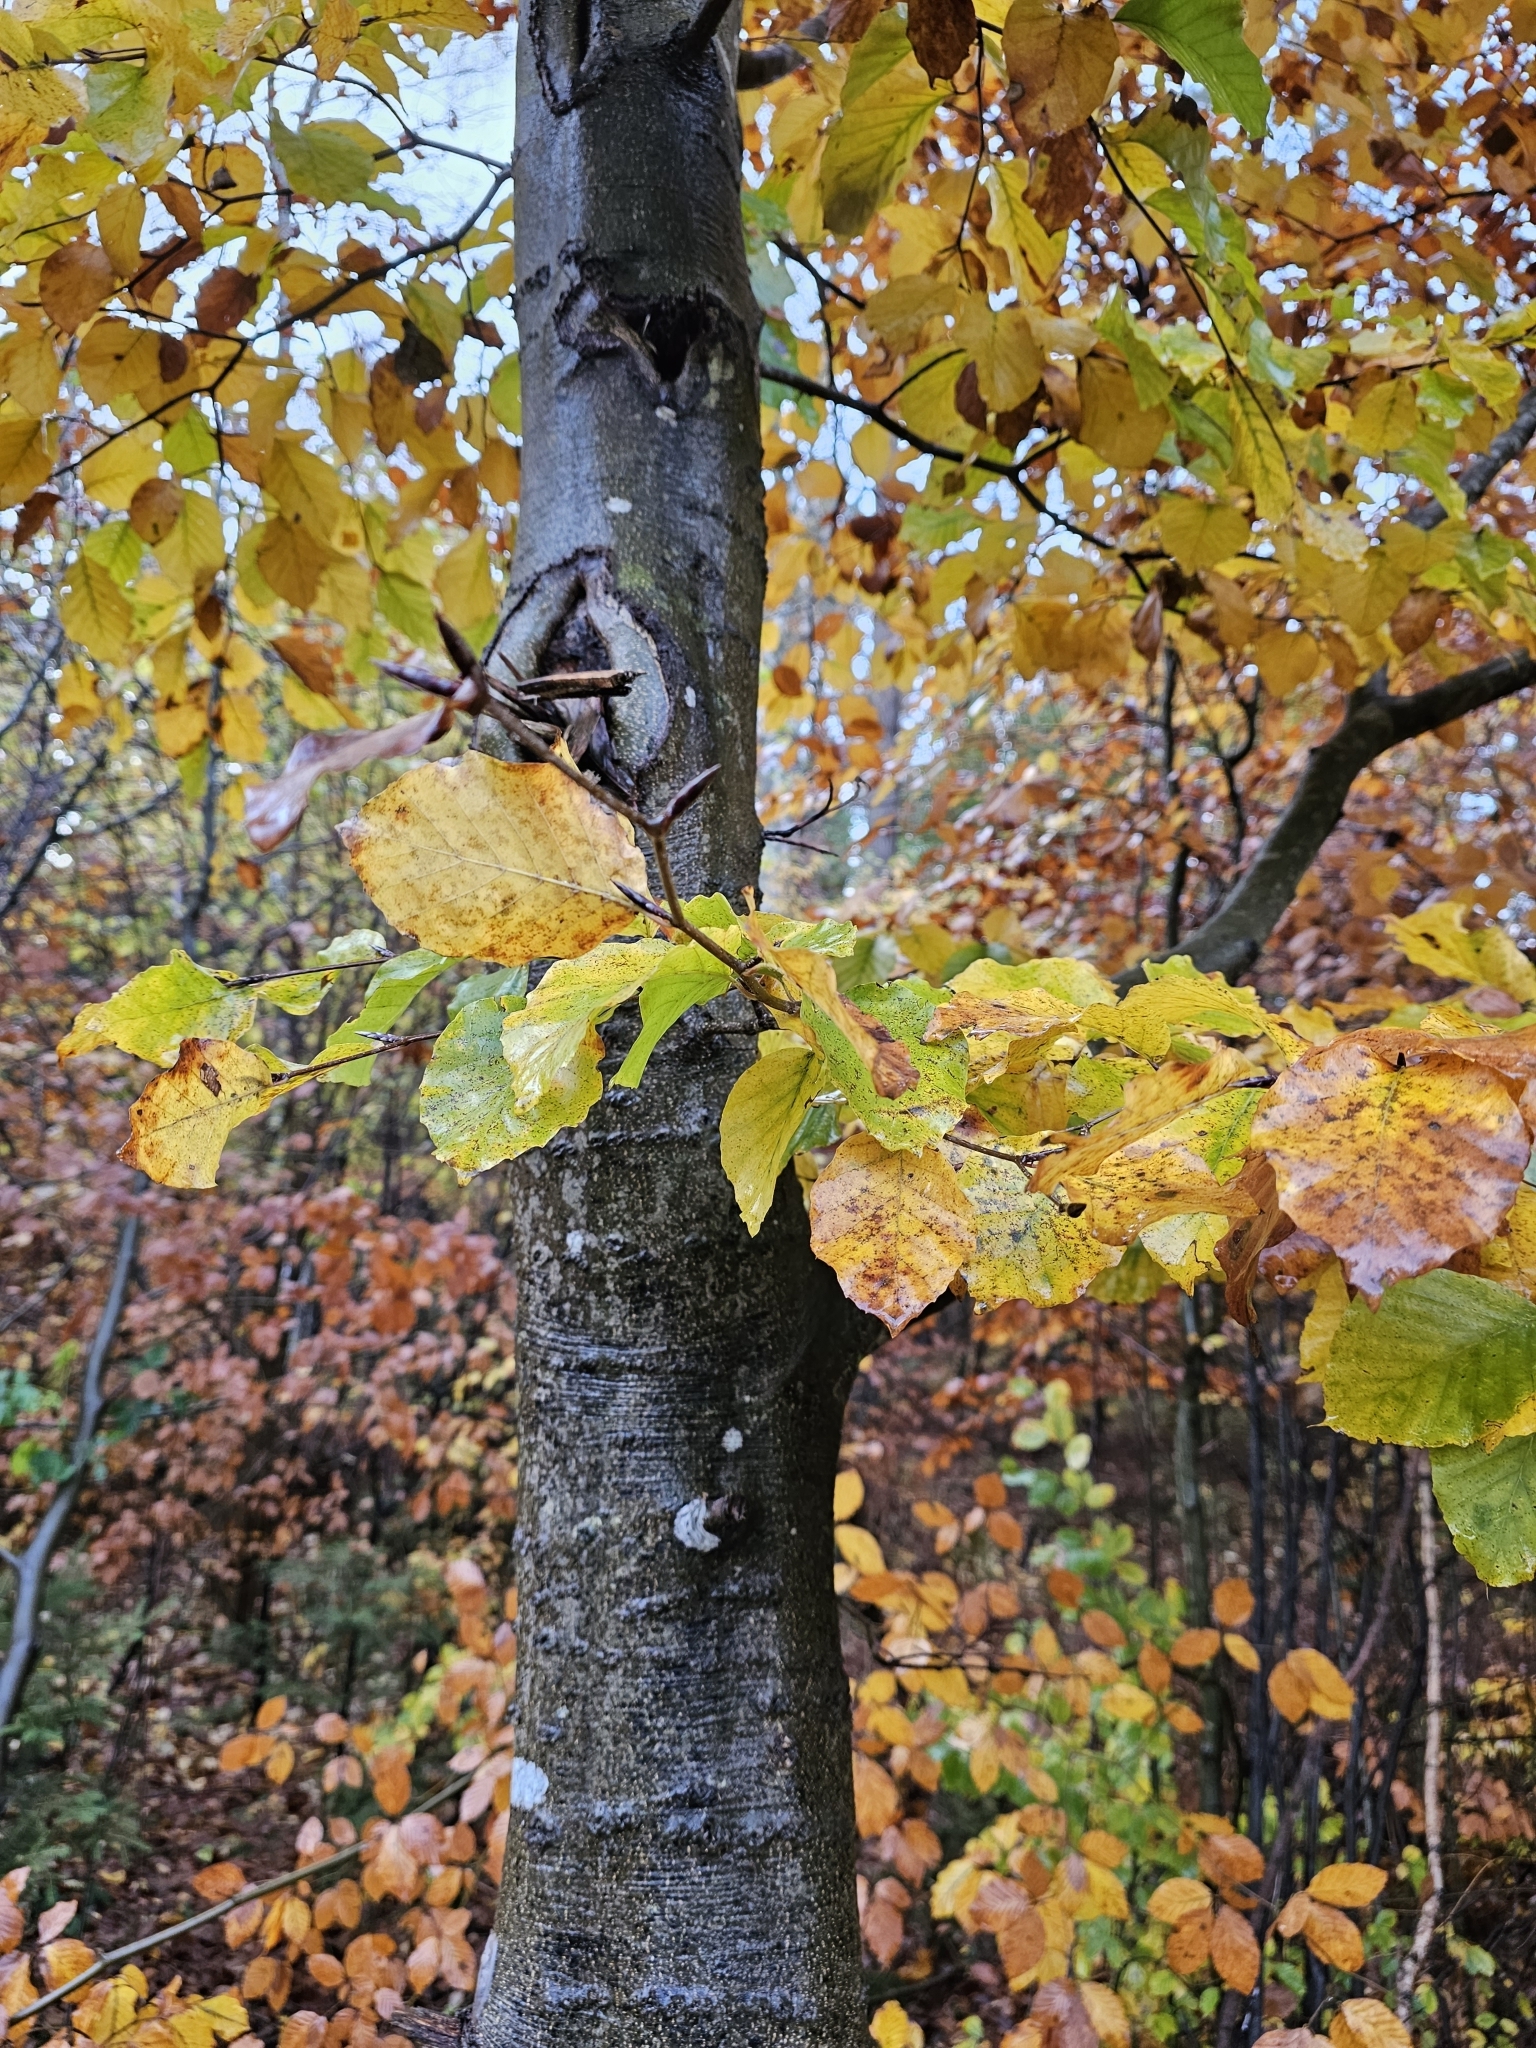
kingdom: Plantae
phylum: Tracheophyta
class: Magnoliopsida
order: Fagales
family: Fagaceae
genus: Fagus
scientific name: Fagus sylvatica
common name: Beech
